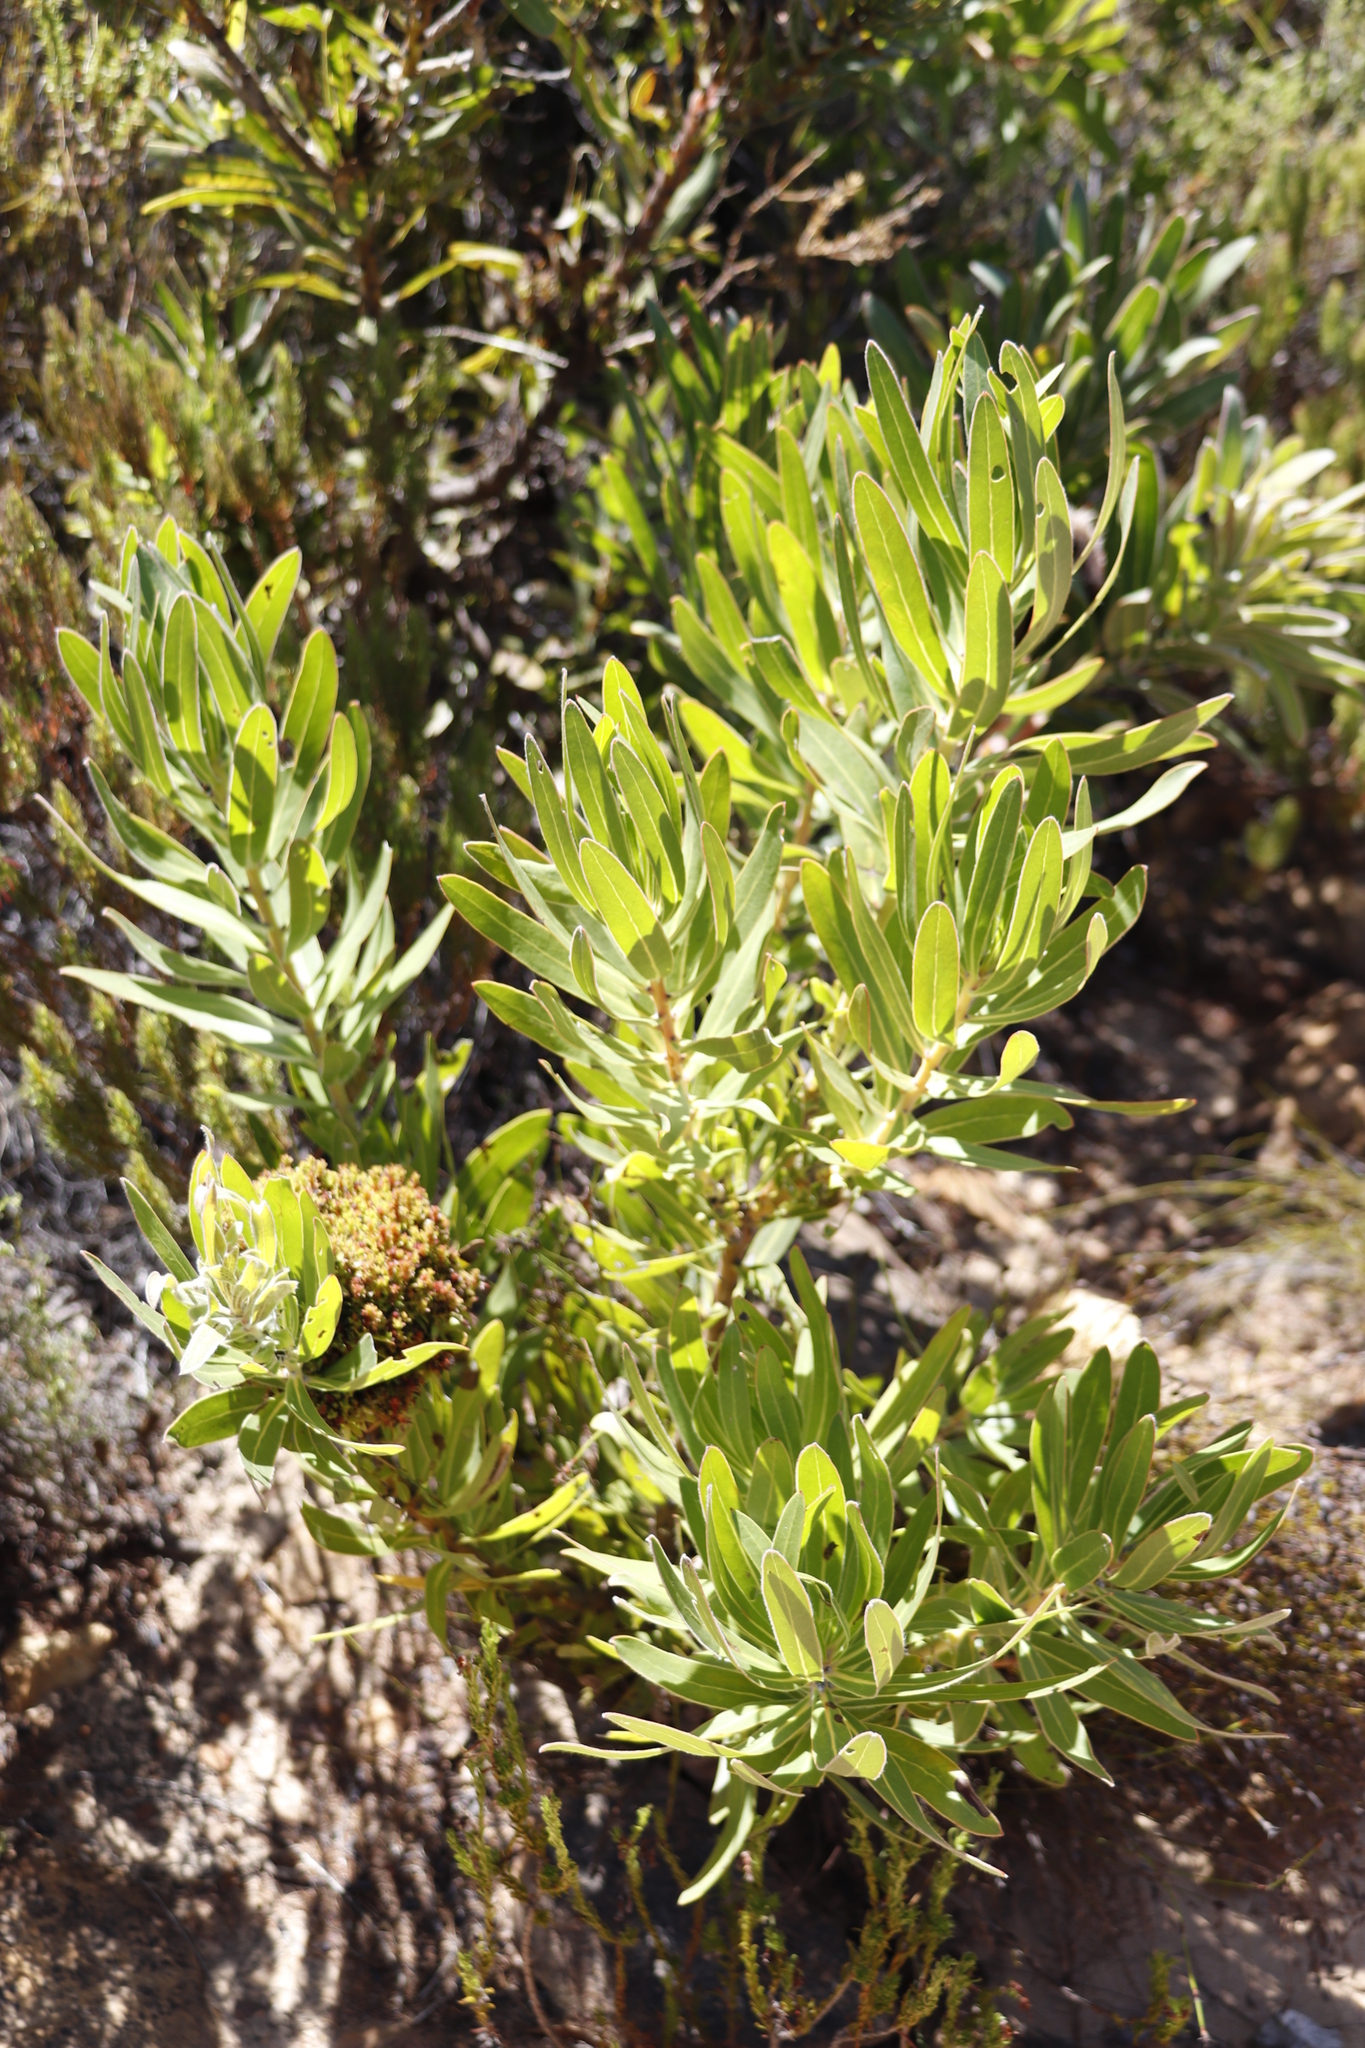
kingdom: Plantae
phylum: Tracheophyta
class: Magnoliopsida
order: Proteales
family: Proteaceae
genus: Protea
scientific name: Protea lepidocarpodendron
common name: Black-bearded protea
